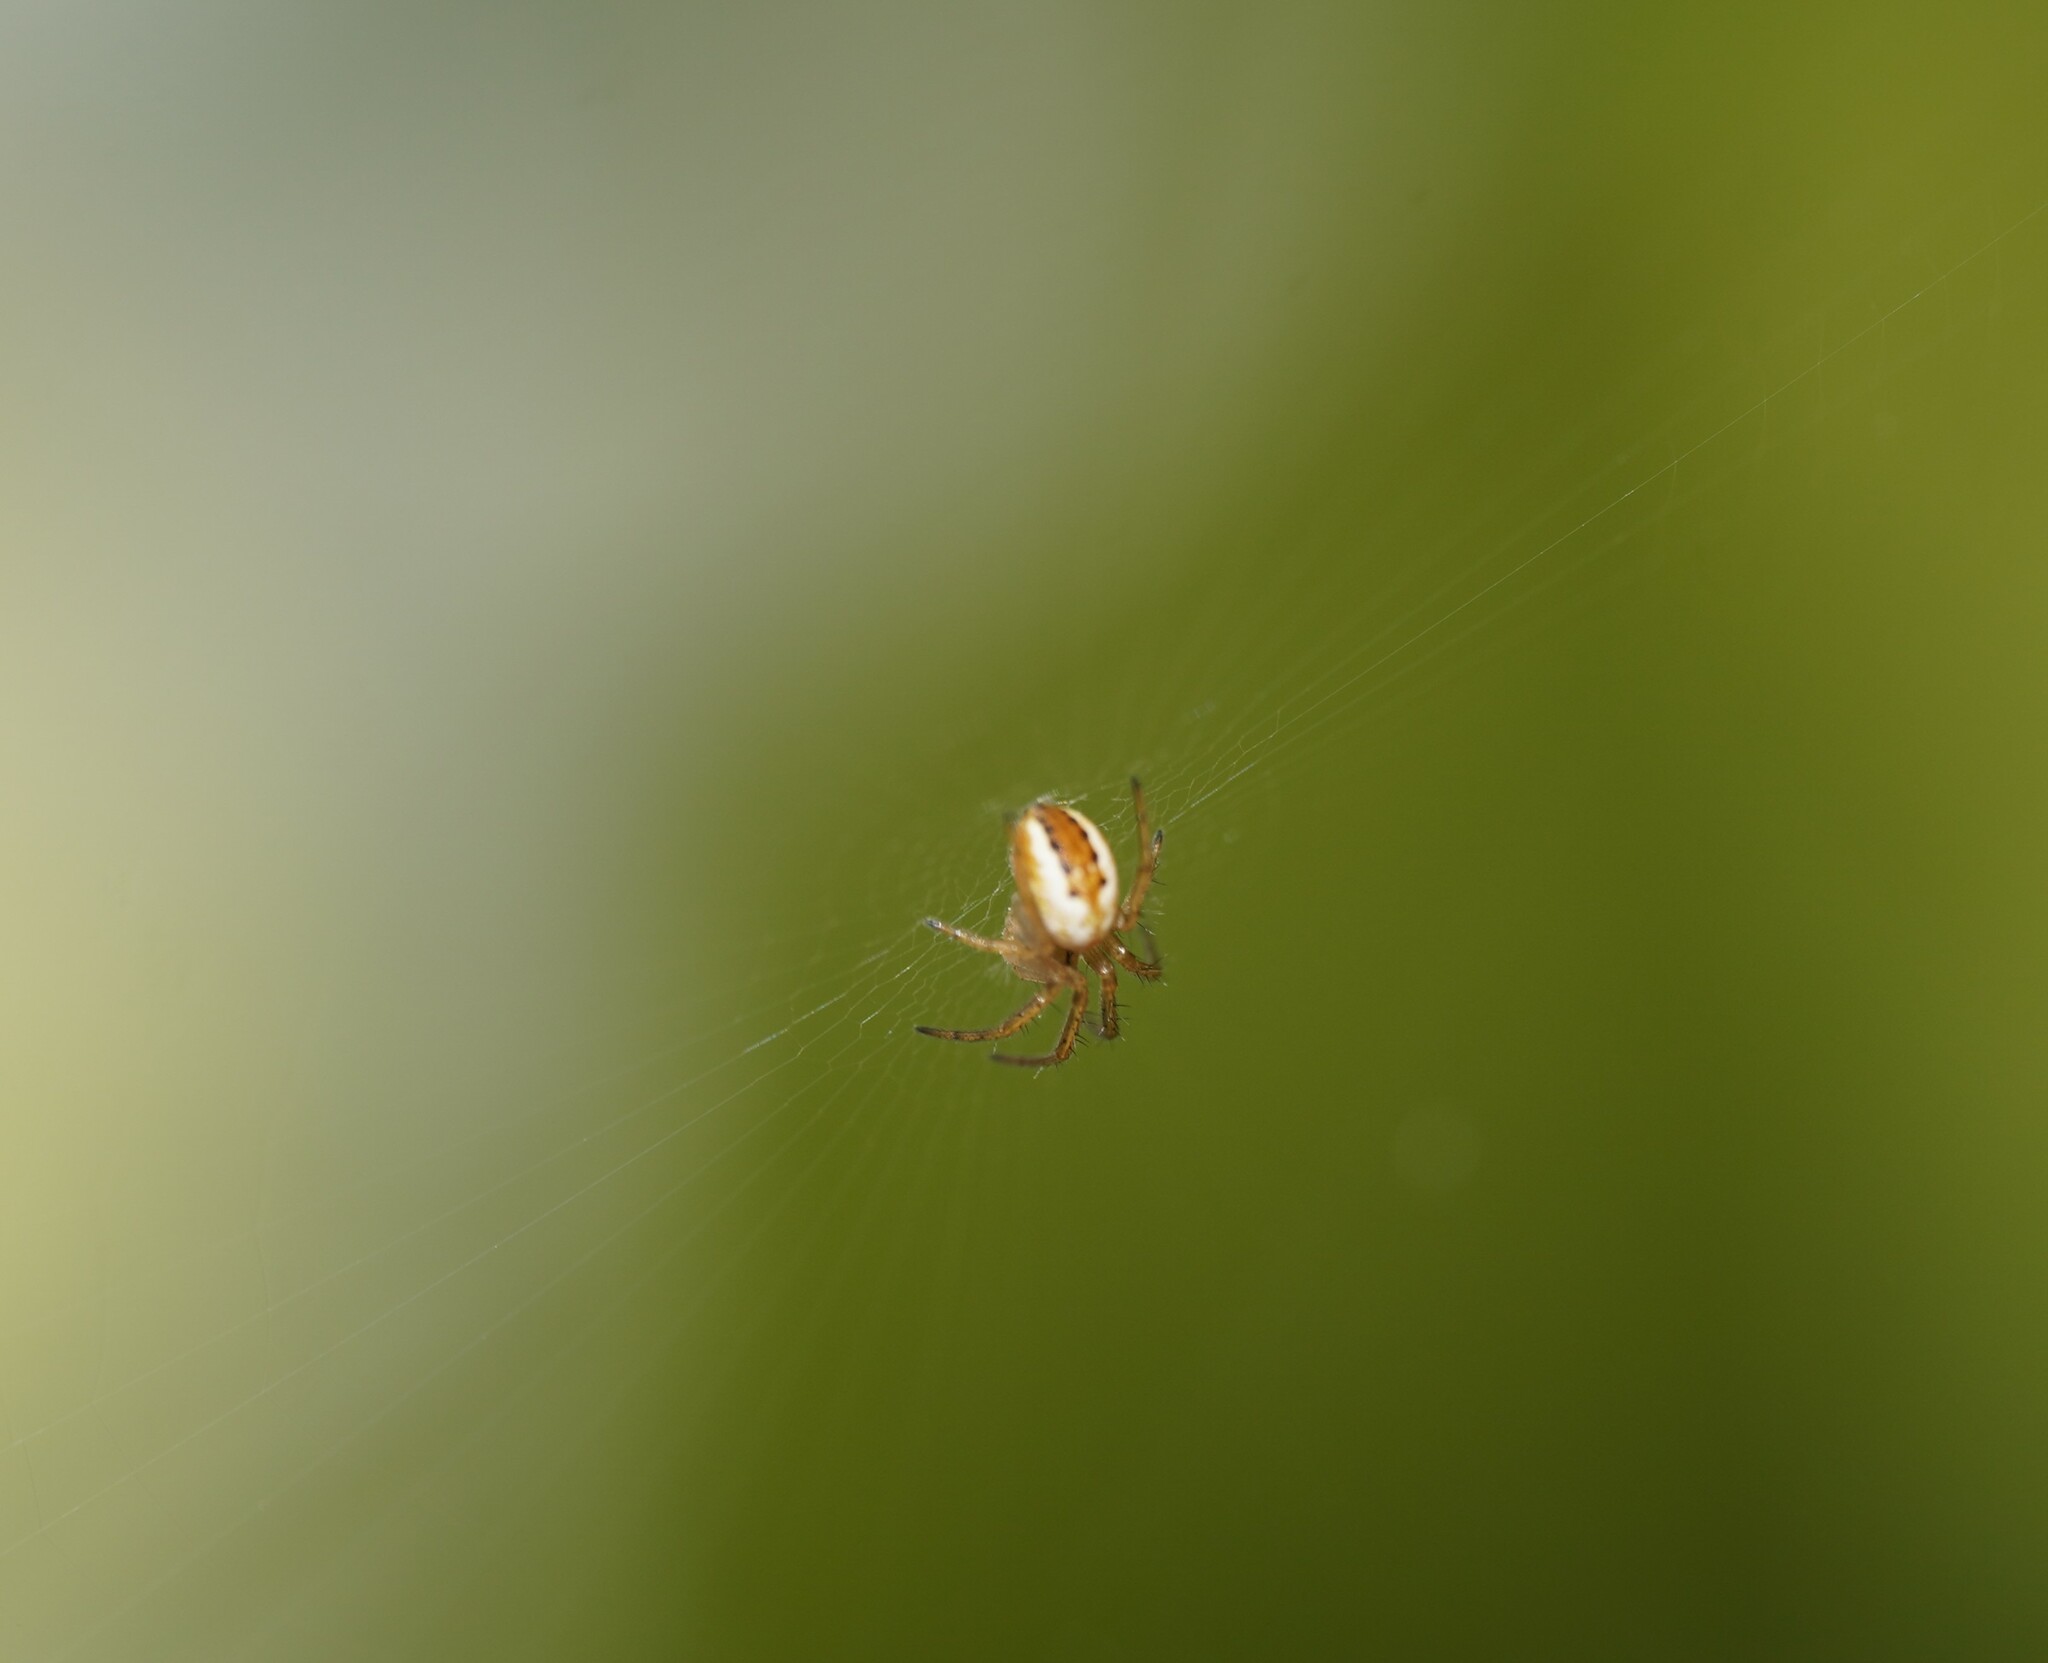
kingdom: Animalia
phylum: Arthropoda
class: Arachnida
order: Araneae
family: Araneidae
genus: Mangora
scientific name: Mangora acalypha
